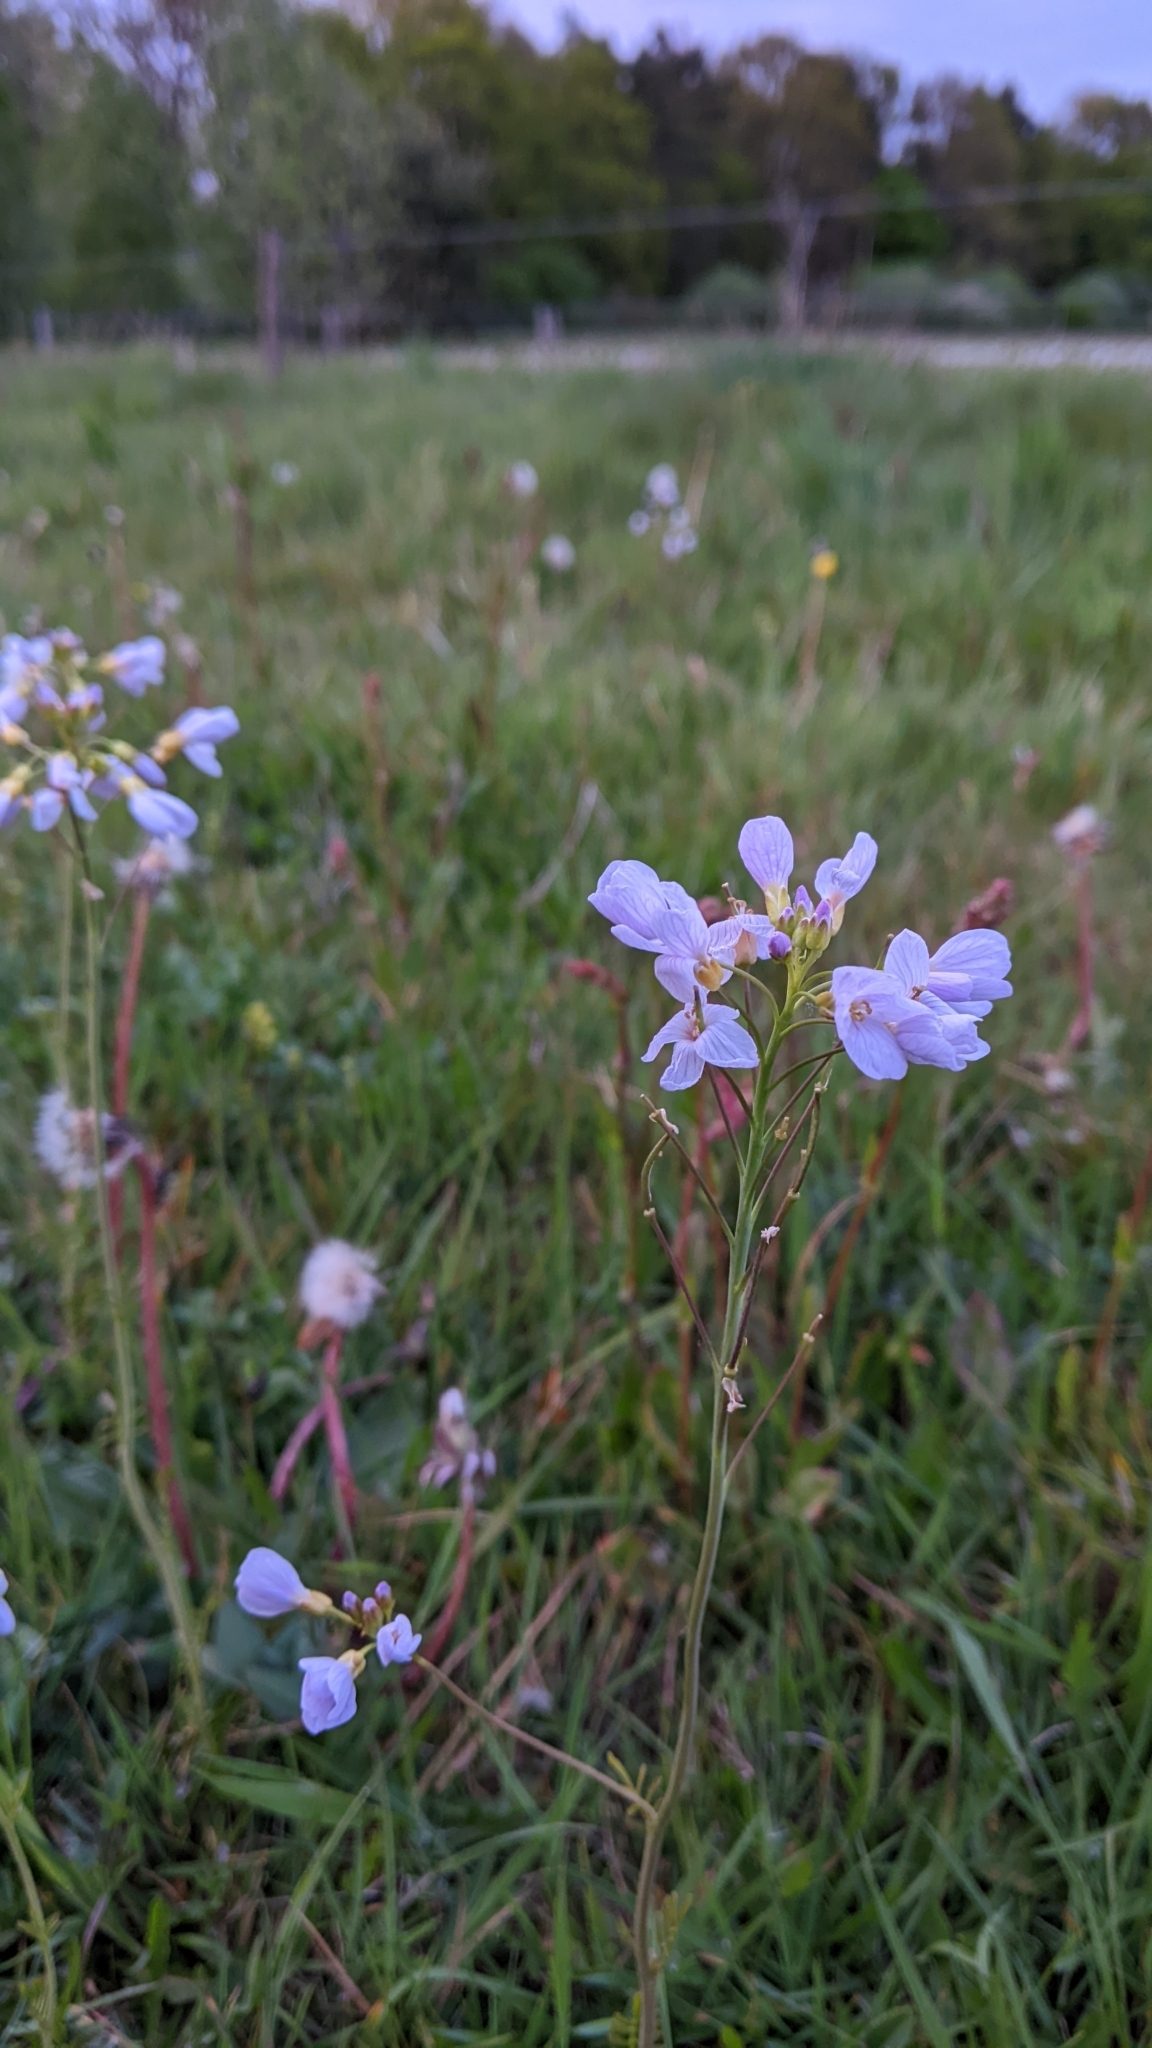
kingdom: Plantae
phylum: Tracheophyta
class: Magnoliopsida
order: Brassicales
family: Brassicaceae
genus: Cardamine
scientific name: Cardamine pratensis
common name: Cuckoo flower
